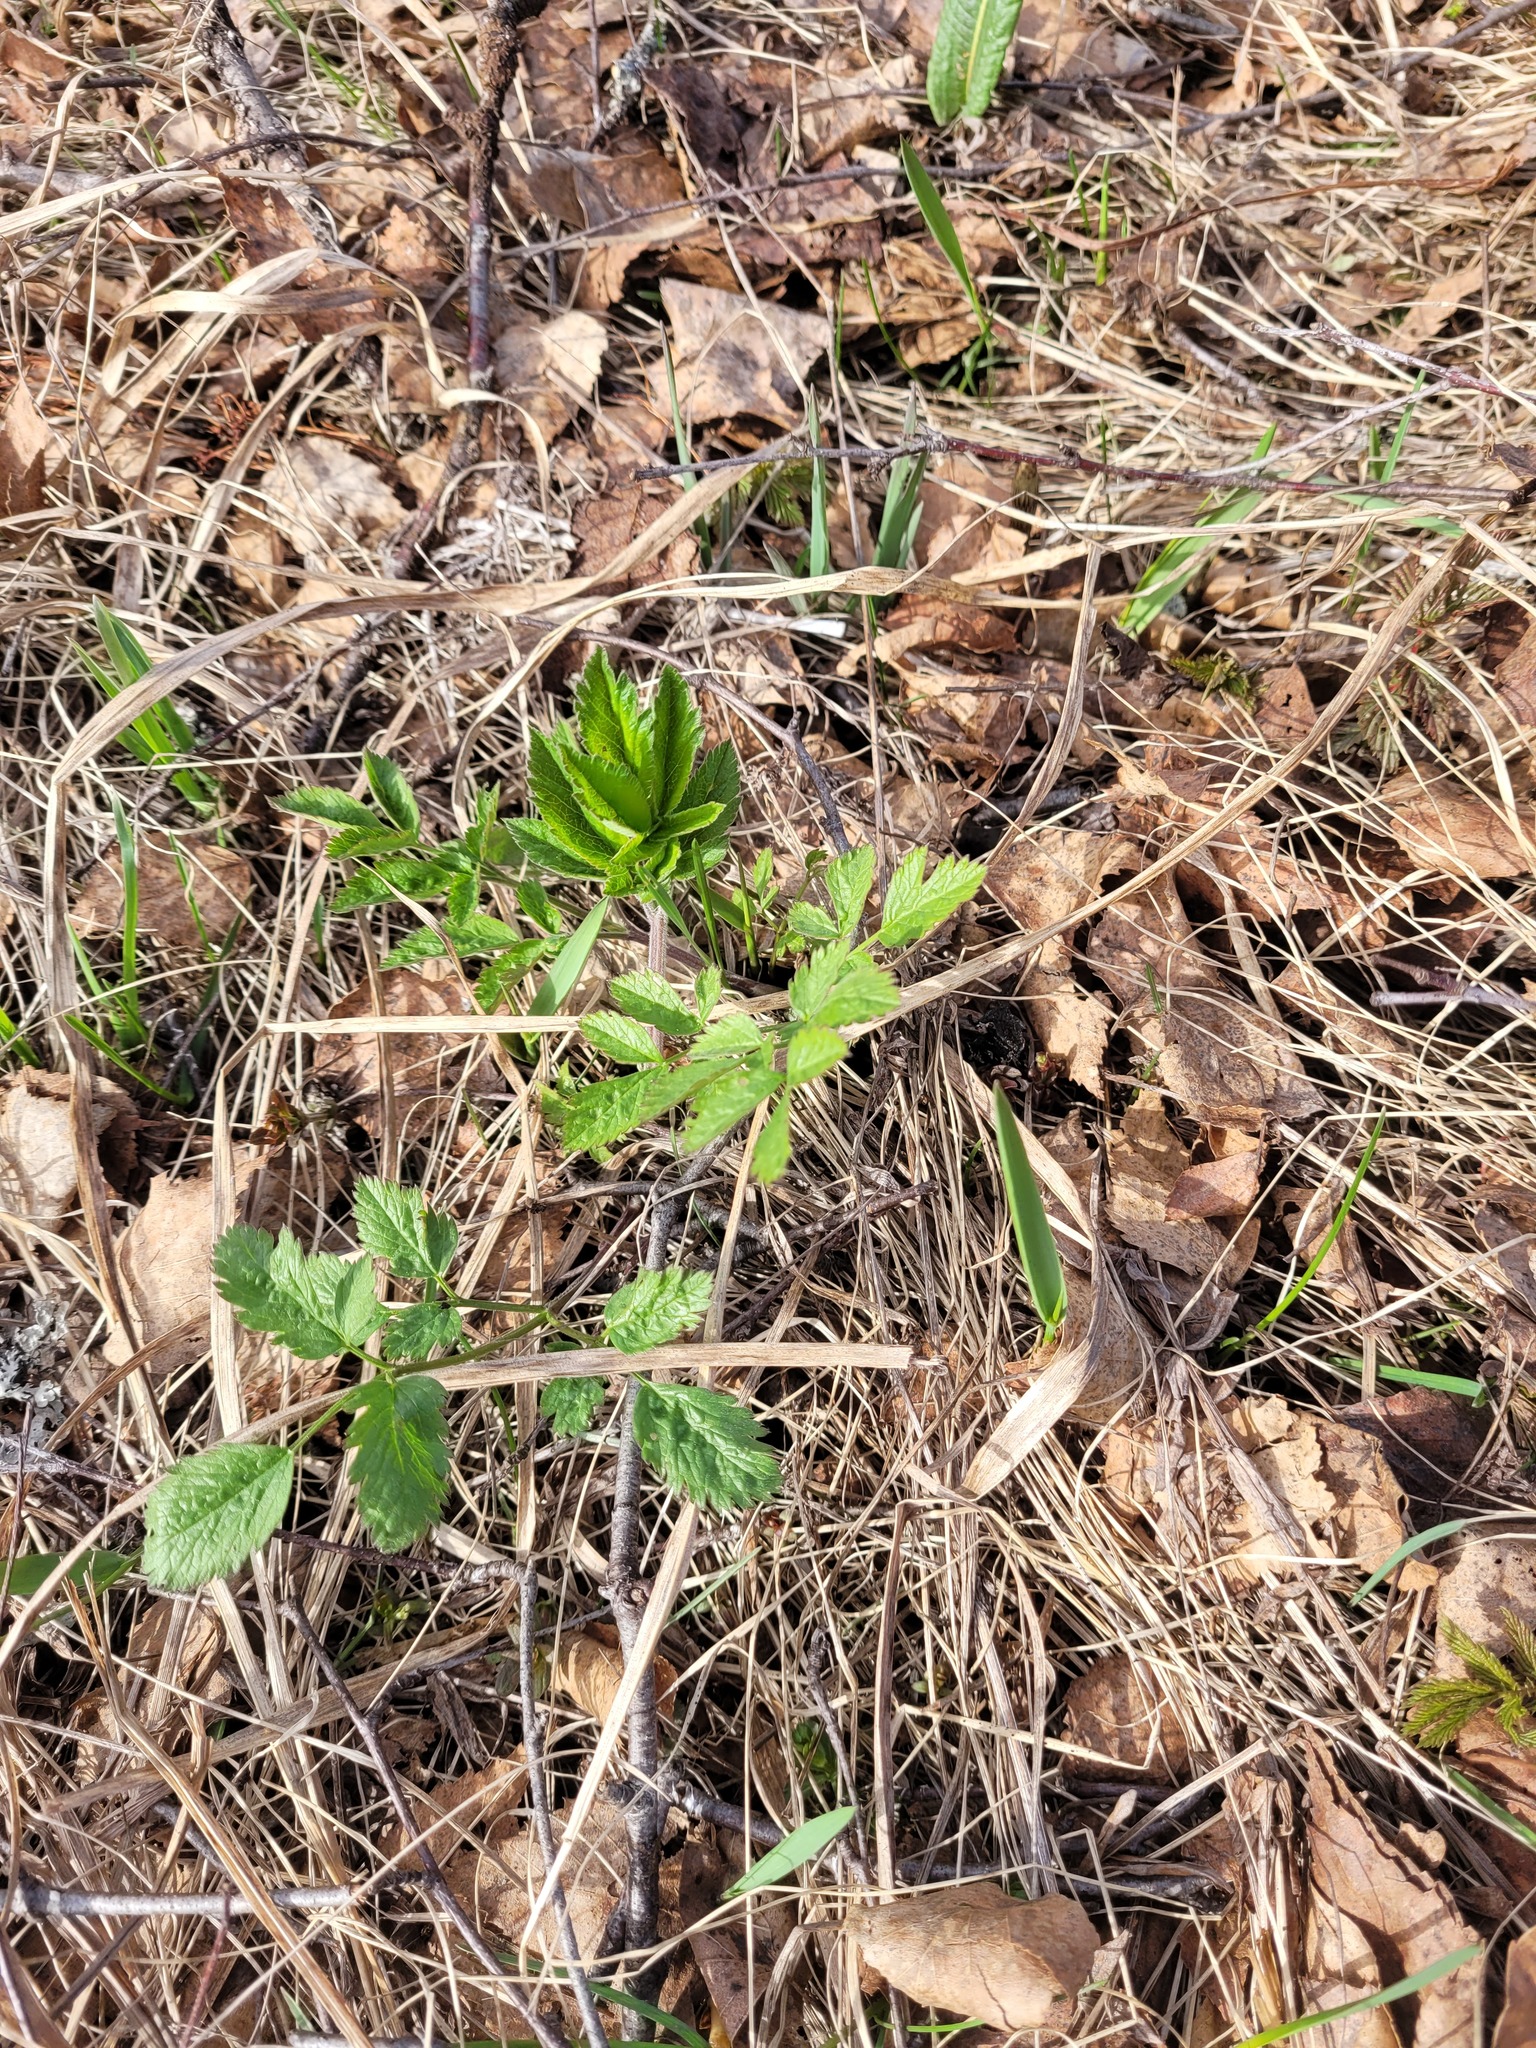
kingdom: Plantae
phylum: Tracheophyta
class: Magnoliopsida
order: Apiales
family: Apiaceae
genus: Chaerophyllum
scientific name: Chaerophyllum aromaticum
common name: Broadleaf chervil
